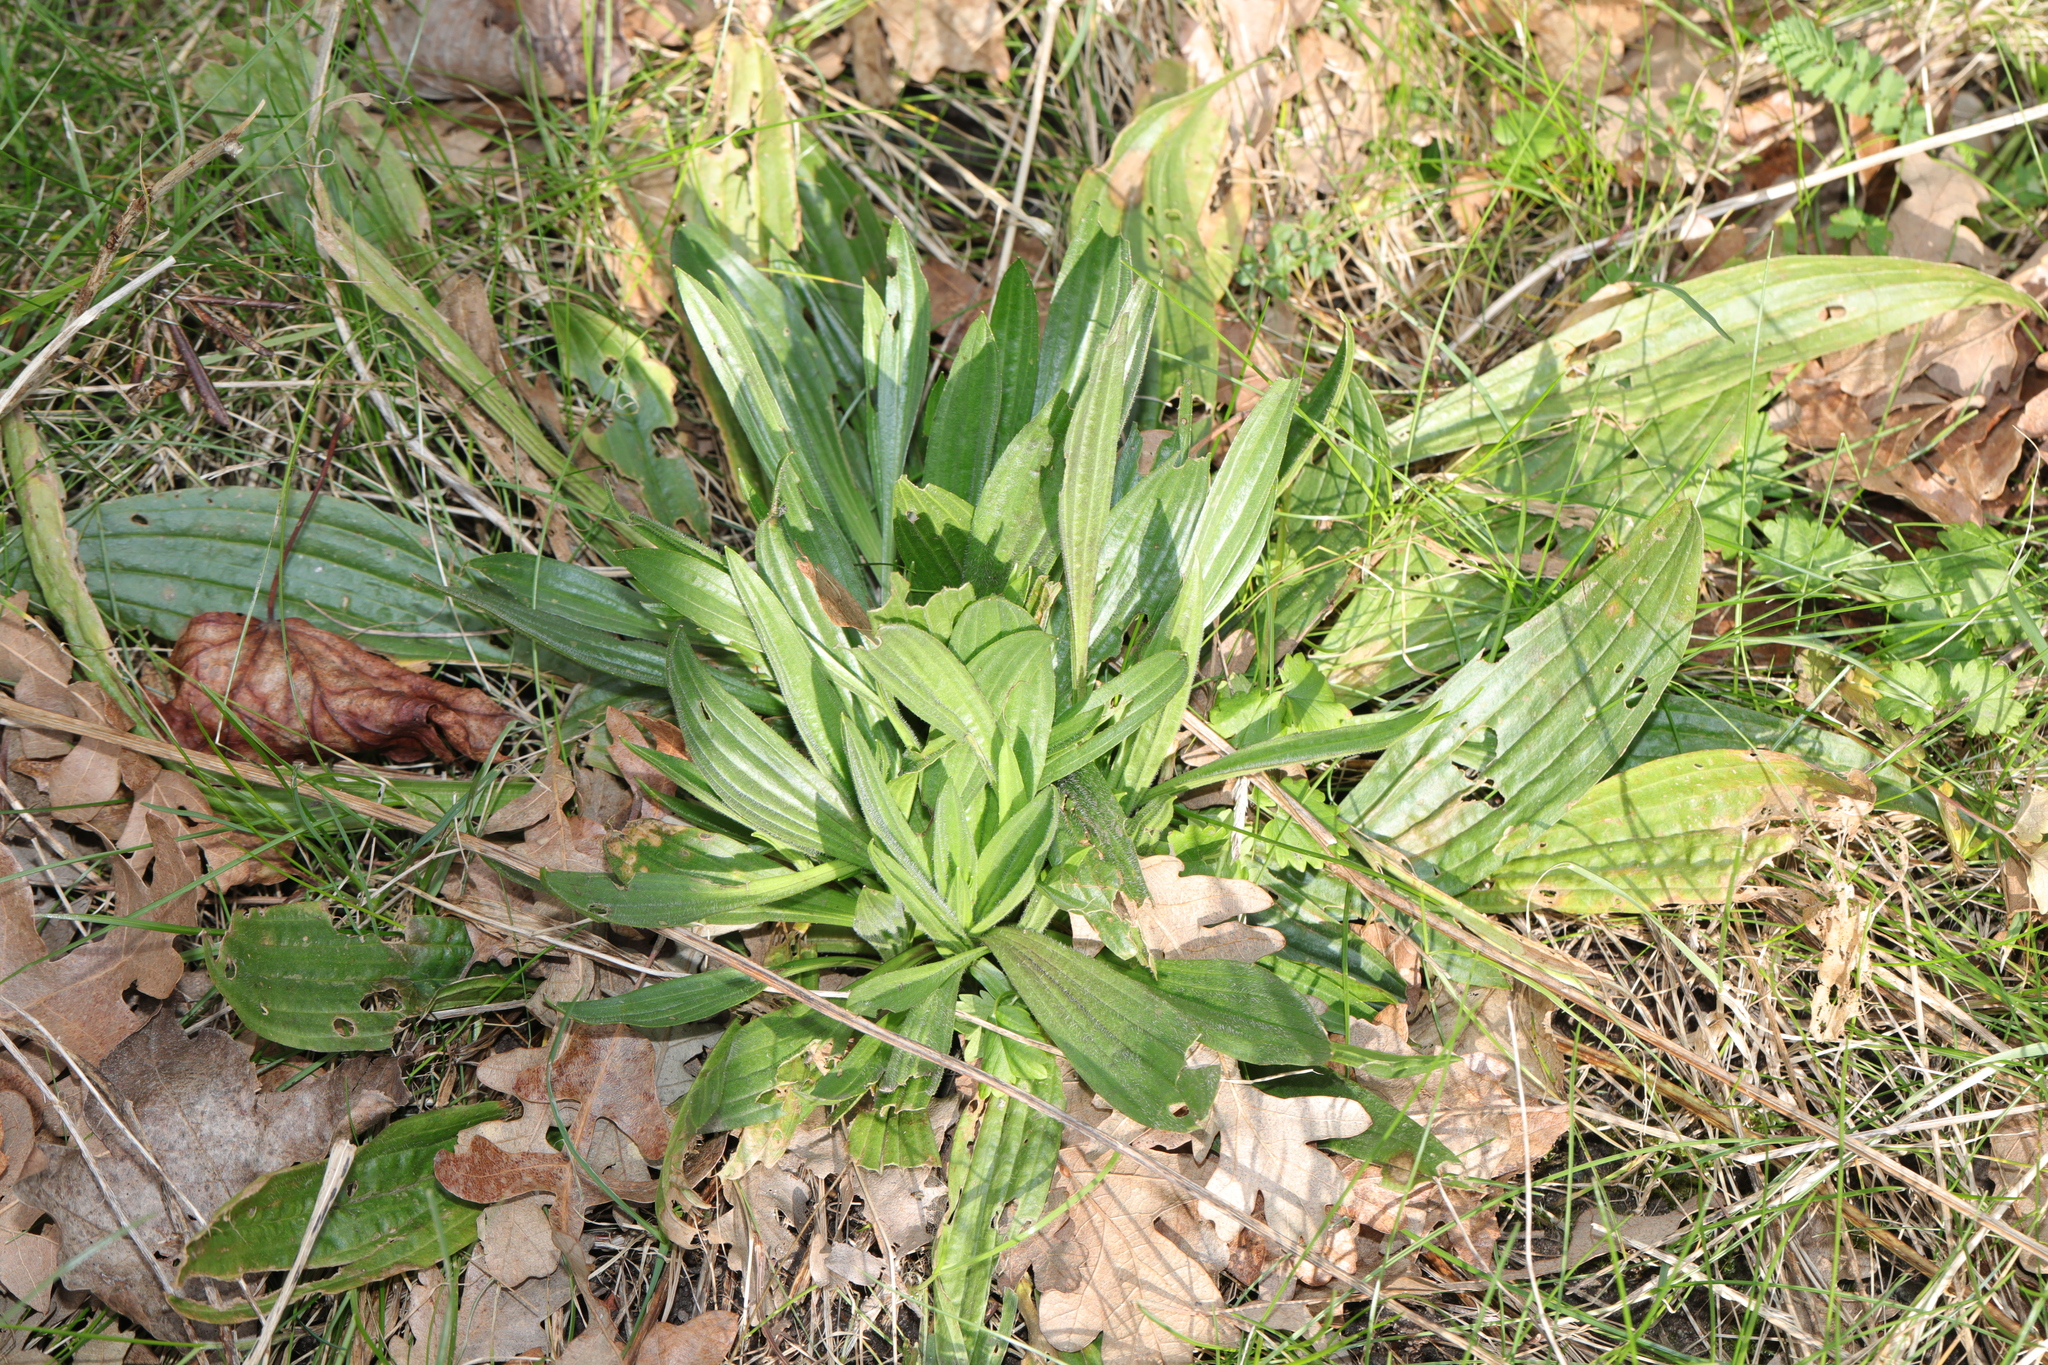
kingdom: Plantae
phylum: Tracheophyta
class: Magnoliopsida
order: Lamiales
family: Plantaginaceae
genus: Plantago
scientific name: Plantago lanceolata
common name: Ribwort plantain
